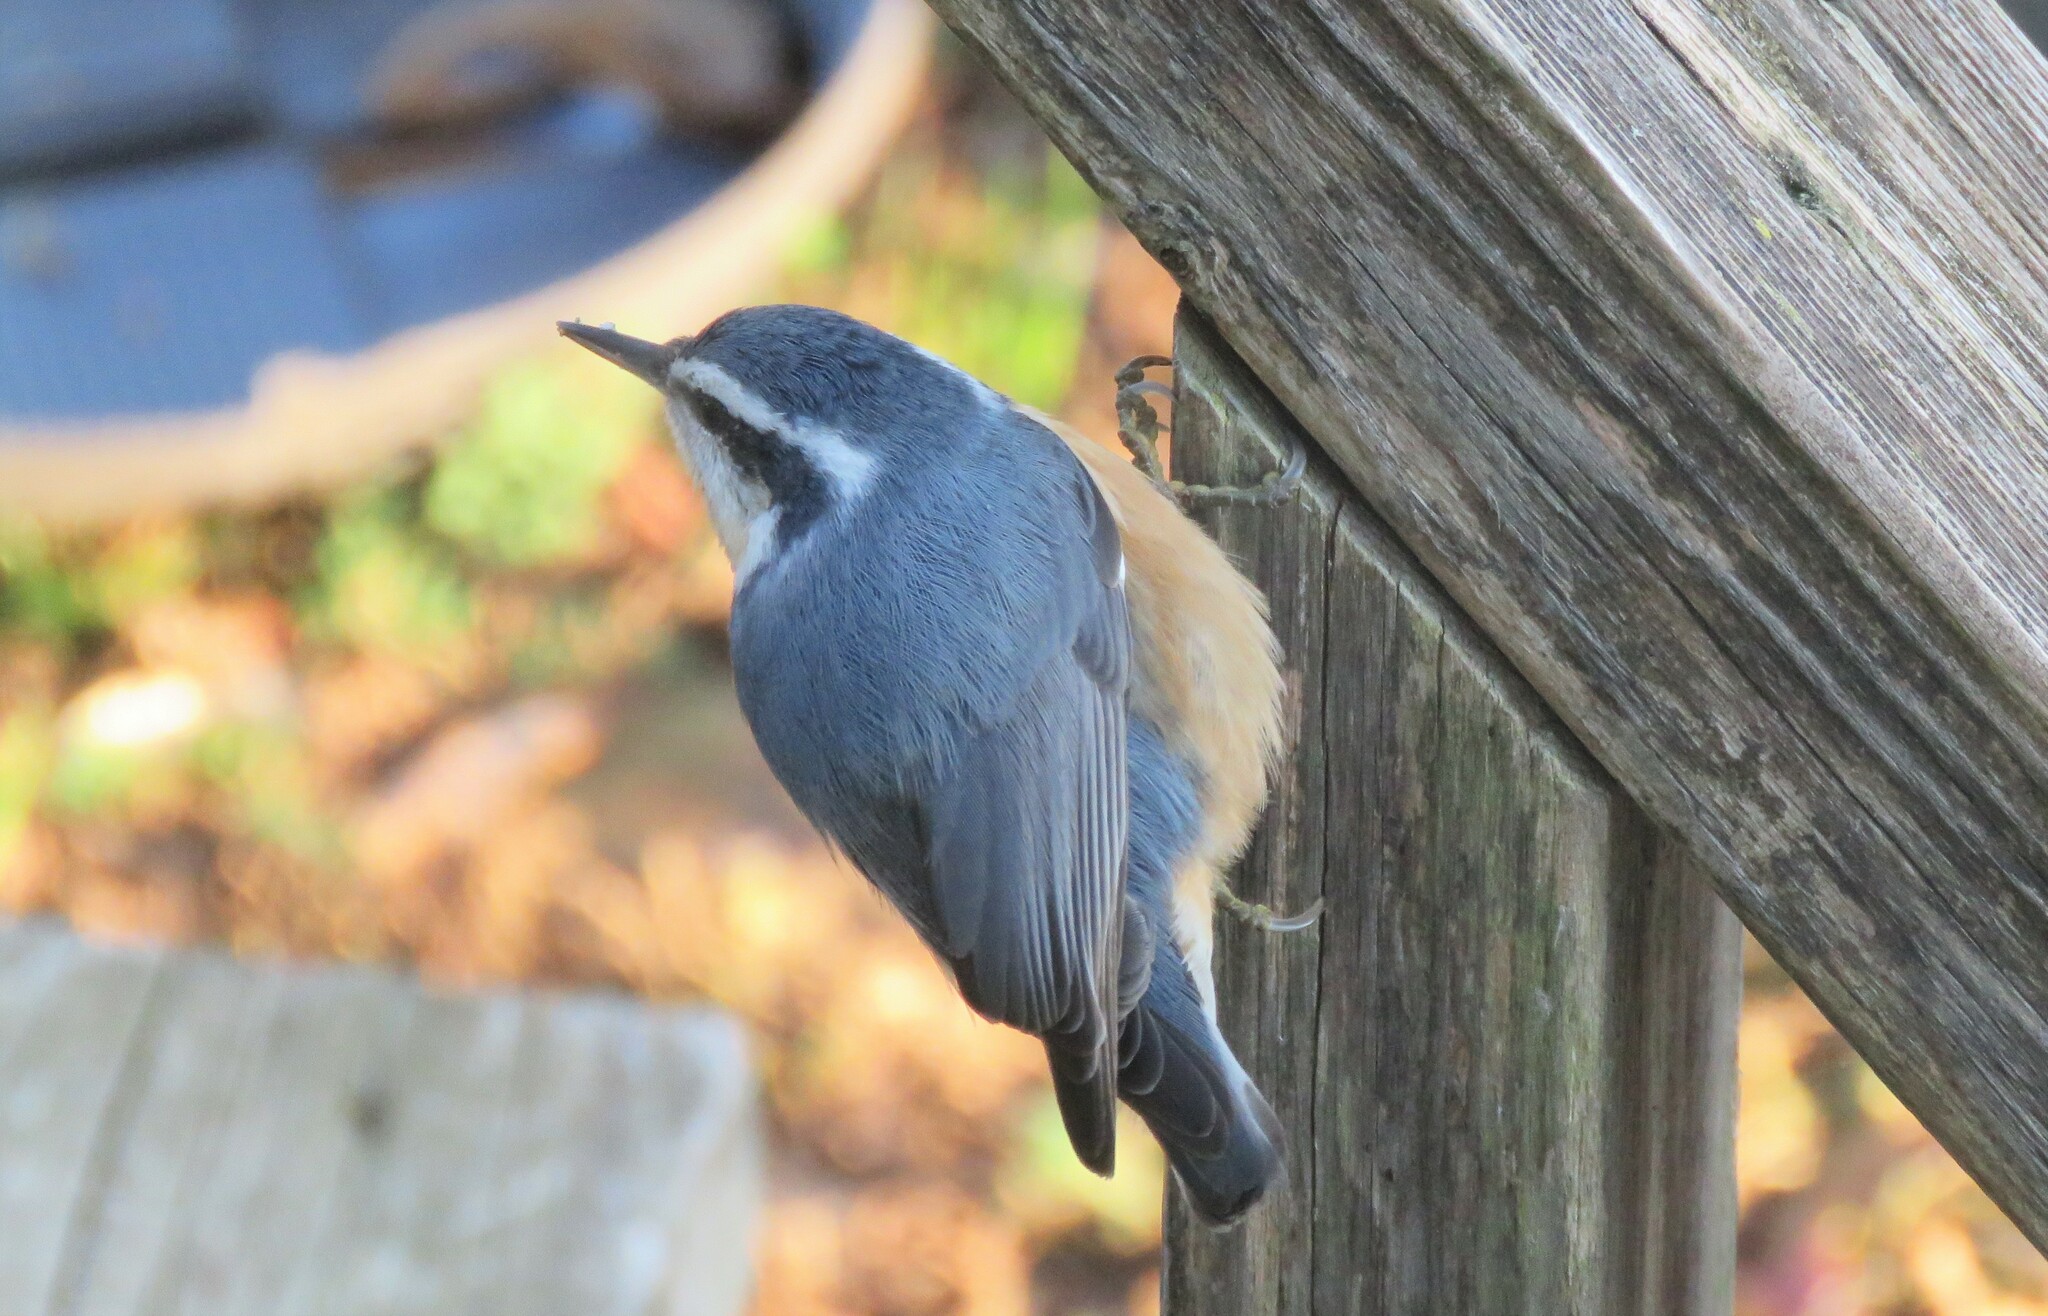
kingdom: Animalia
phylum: Chordata
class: Aves
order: Passeriformes
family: Sittidae
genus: Sitta
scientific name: Sitta canadensis
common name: Red-breasted nuthatch
